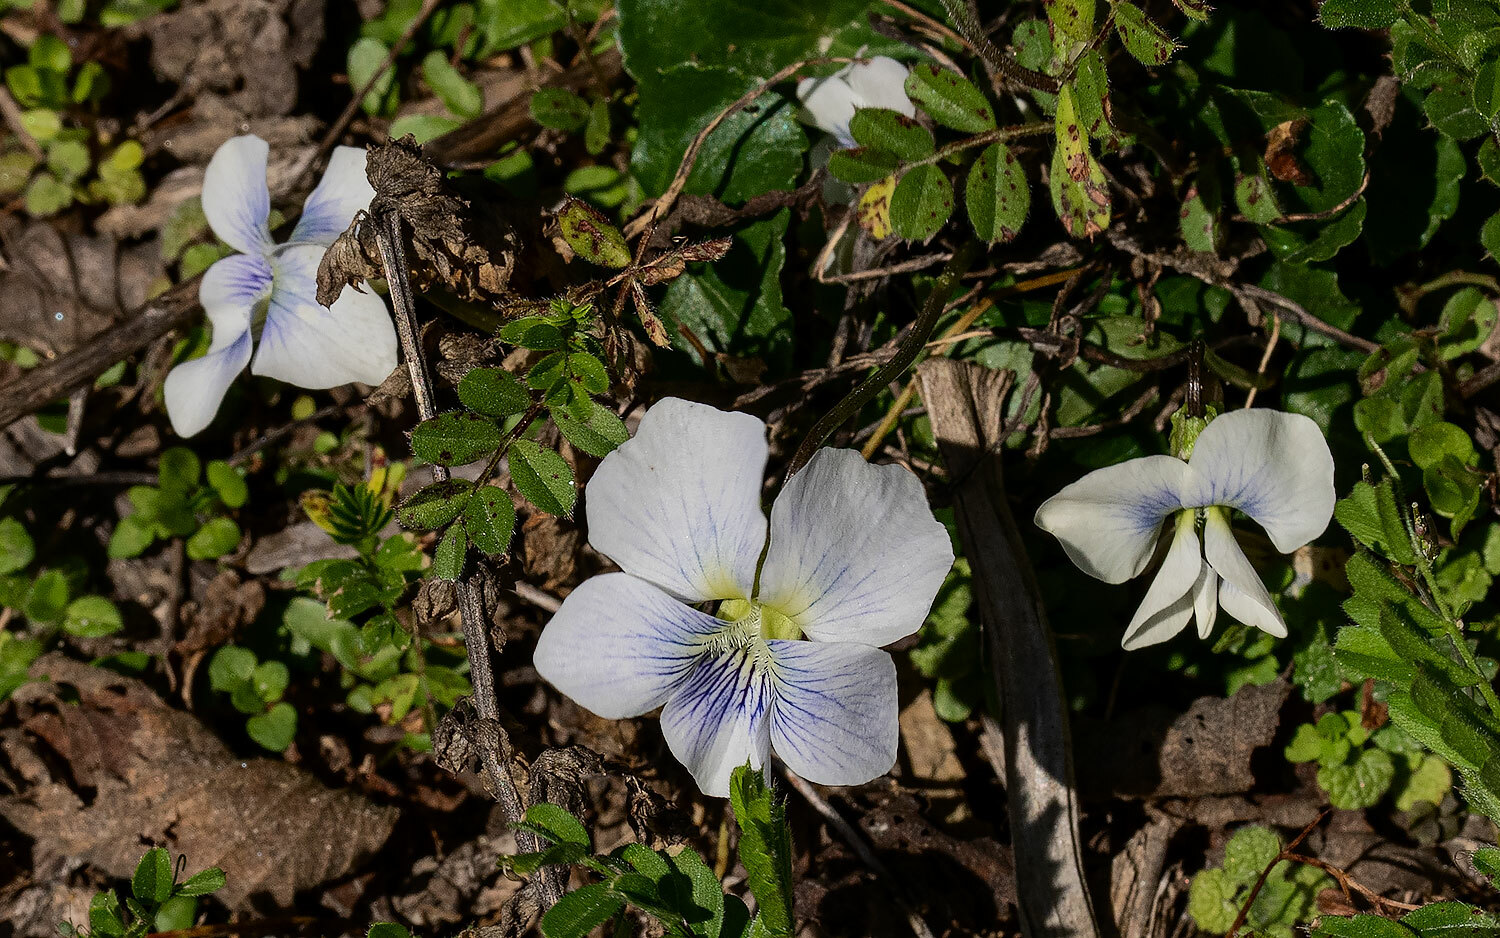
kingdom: Plantae
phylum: Tracheophyta
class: Magnoliopsida
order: Malpighiales
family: Violaceae
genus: Viola
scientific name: Viola sororia
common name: Dooryard violet
